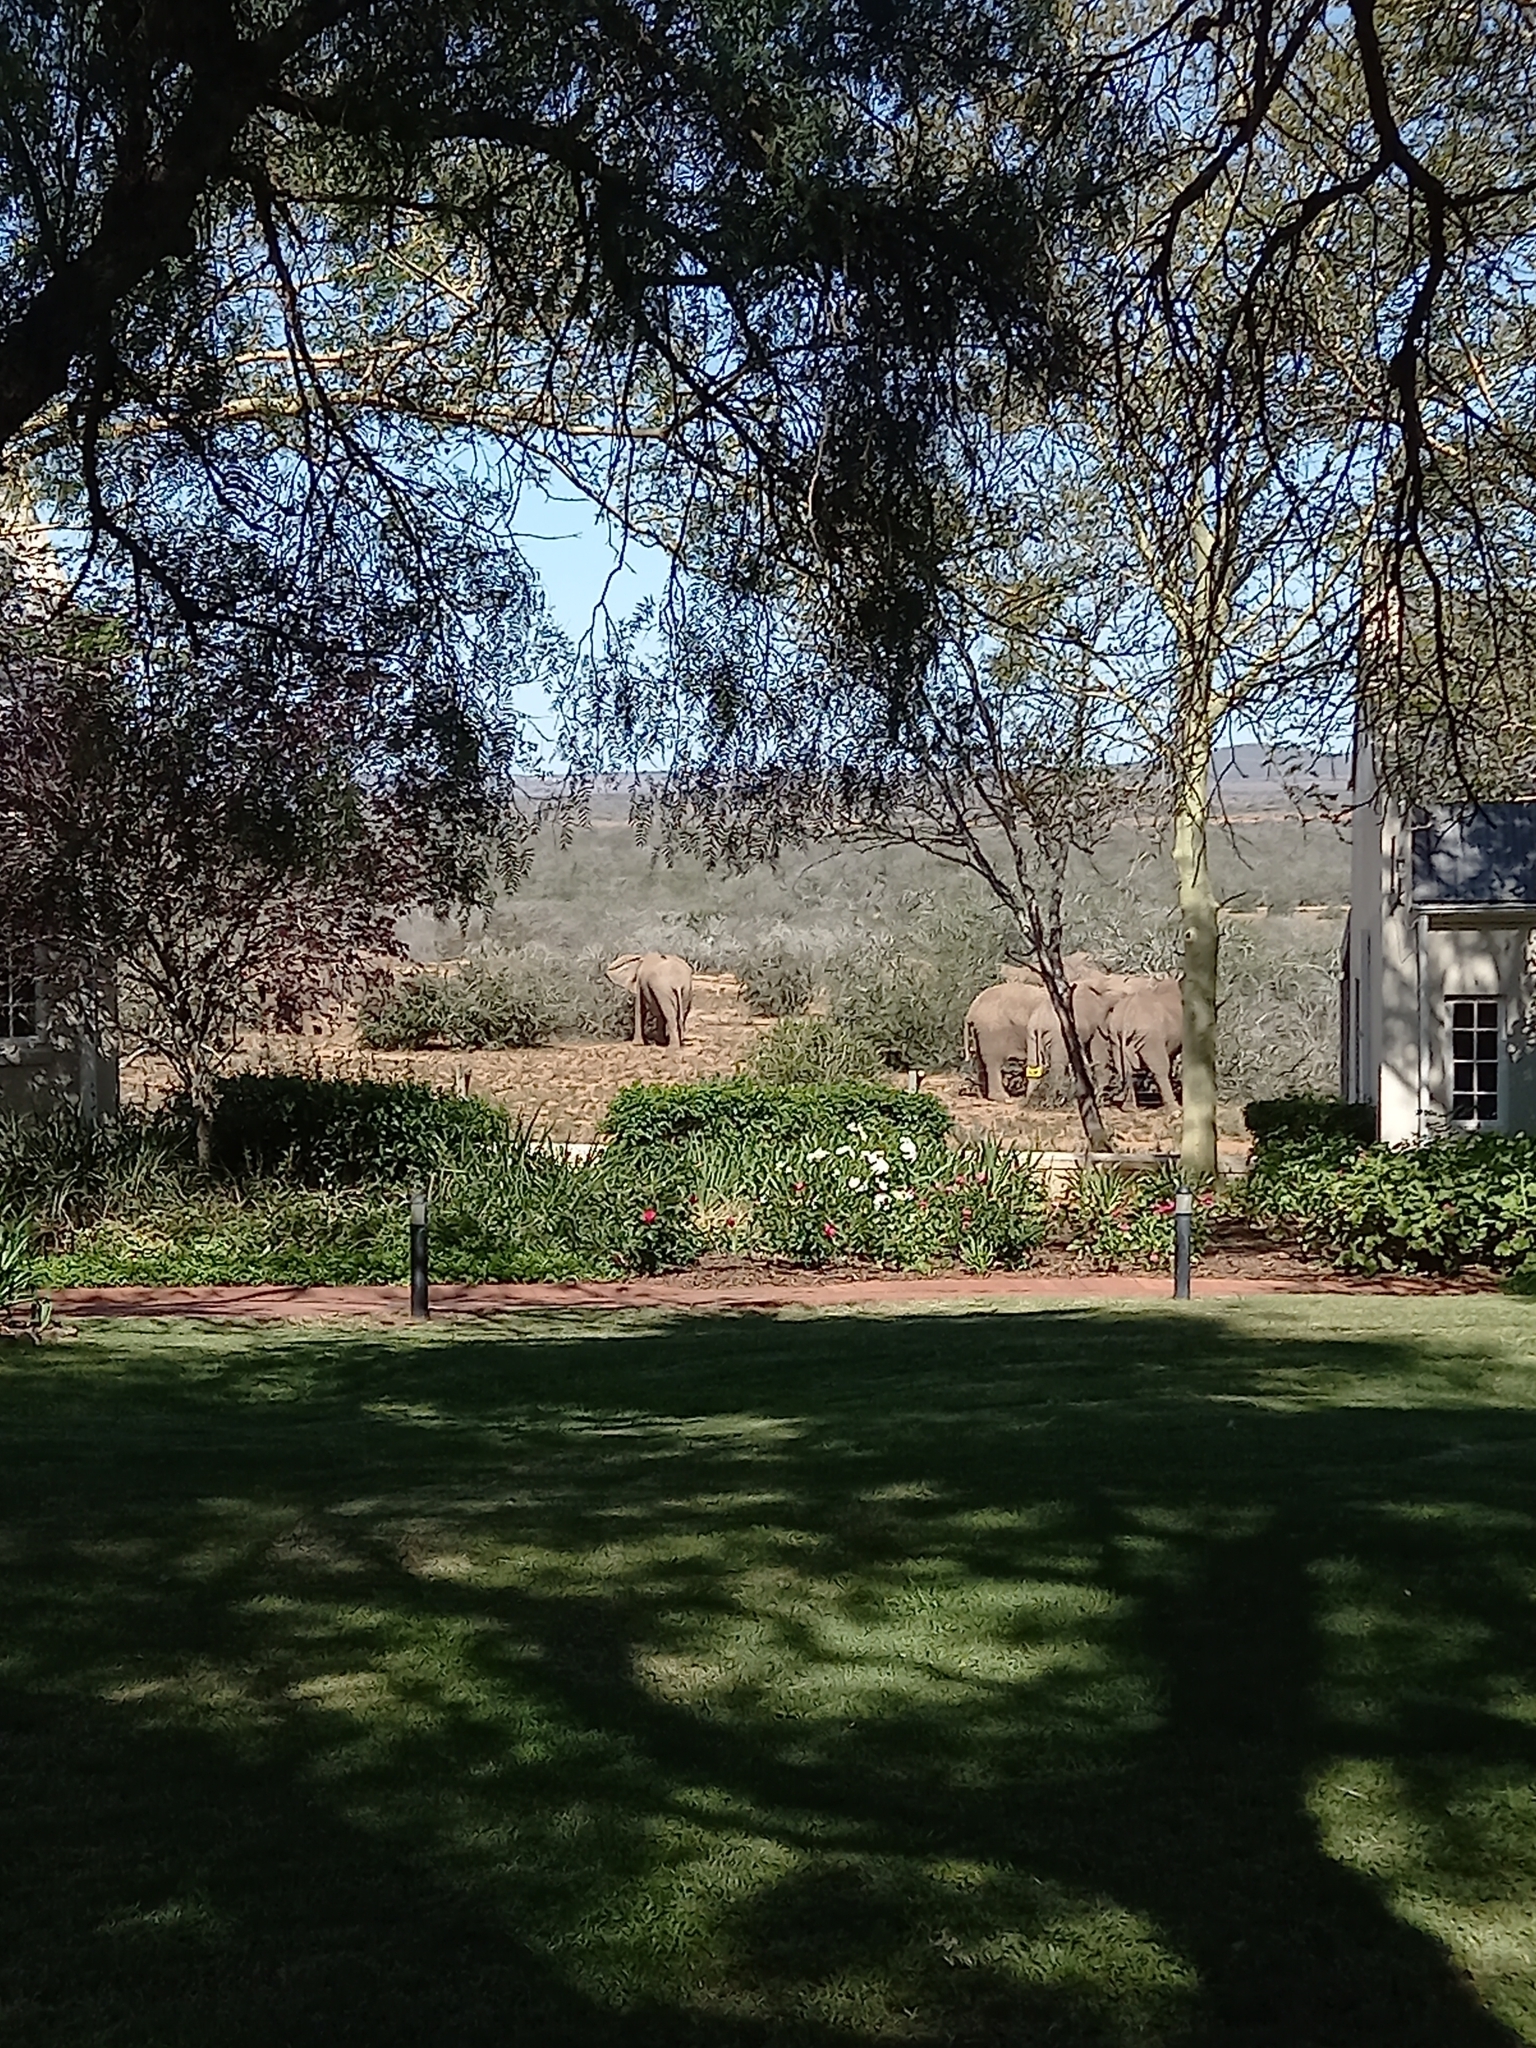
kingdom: Animalia
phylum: Chordata
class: Mammalia
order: Proboscidea
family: Elephantidae
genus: Loxodonta
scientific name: Loxodonta africana
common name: African elephant
